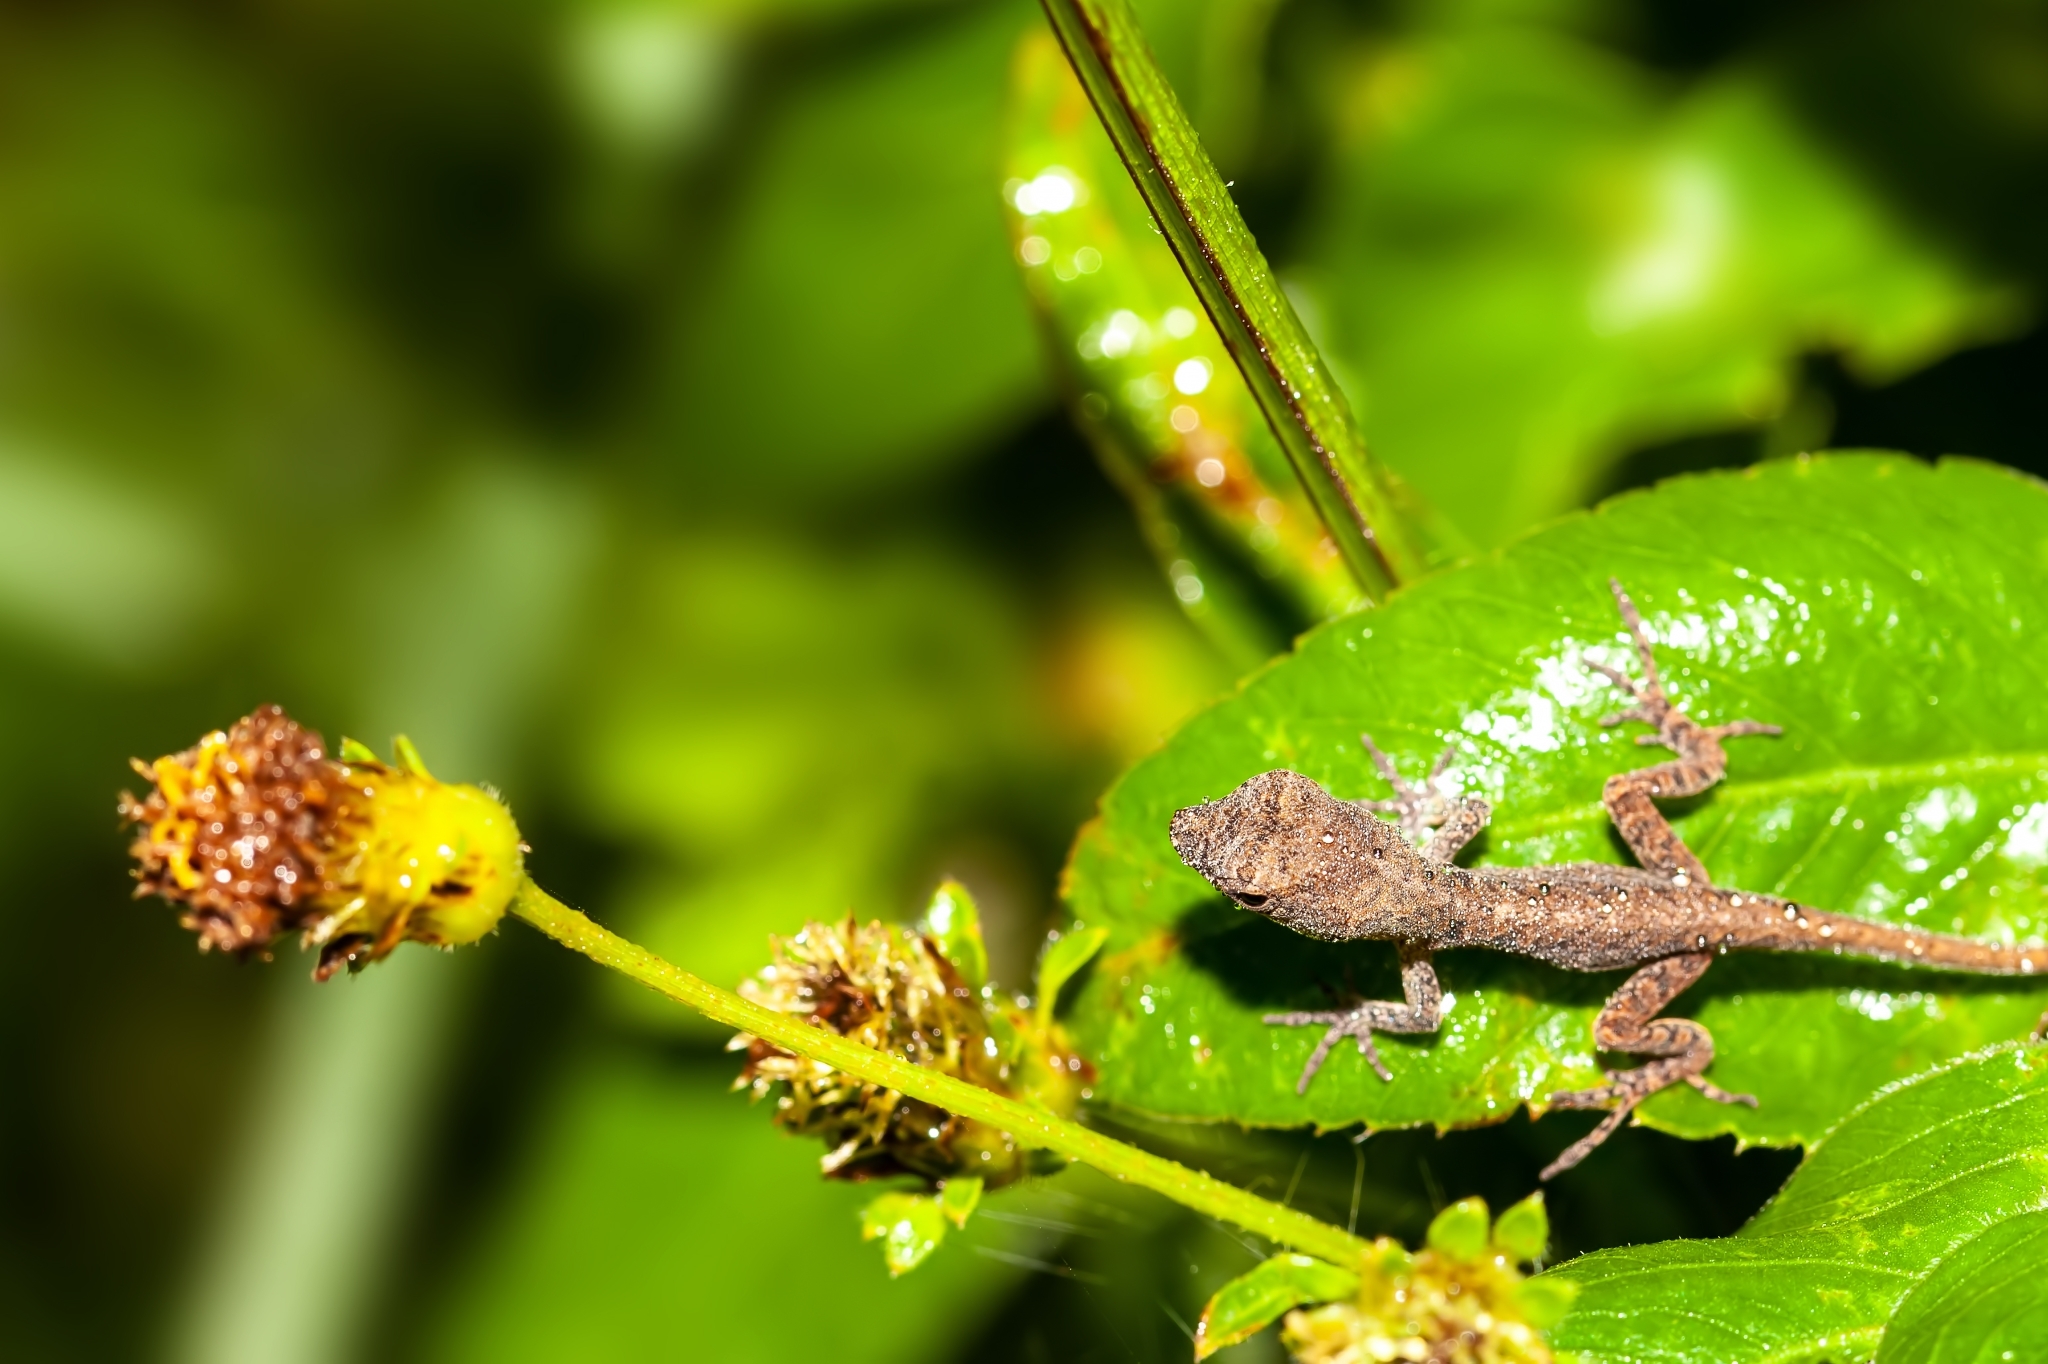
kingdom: Animalia
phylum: Chordata
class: Squamata
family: Dactyloidae
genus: Anolis
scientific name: Anolis sagrei
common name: Brown anole
